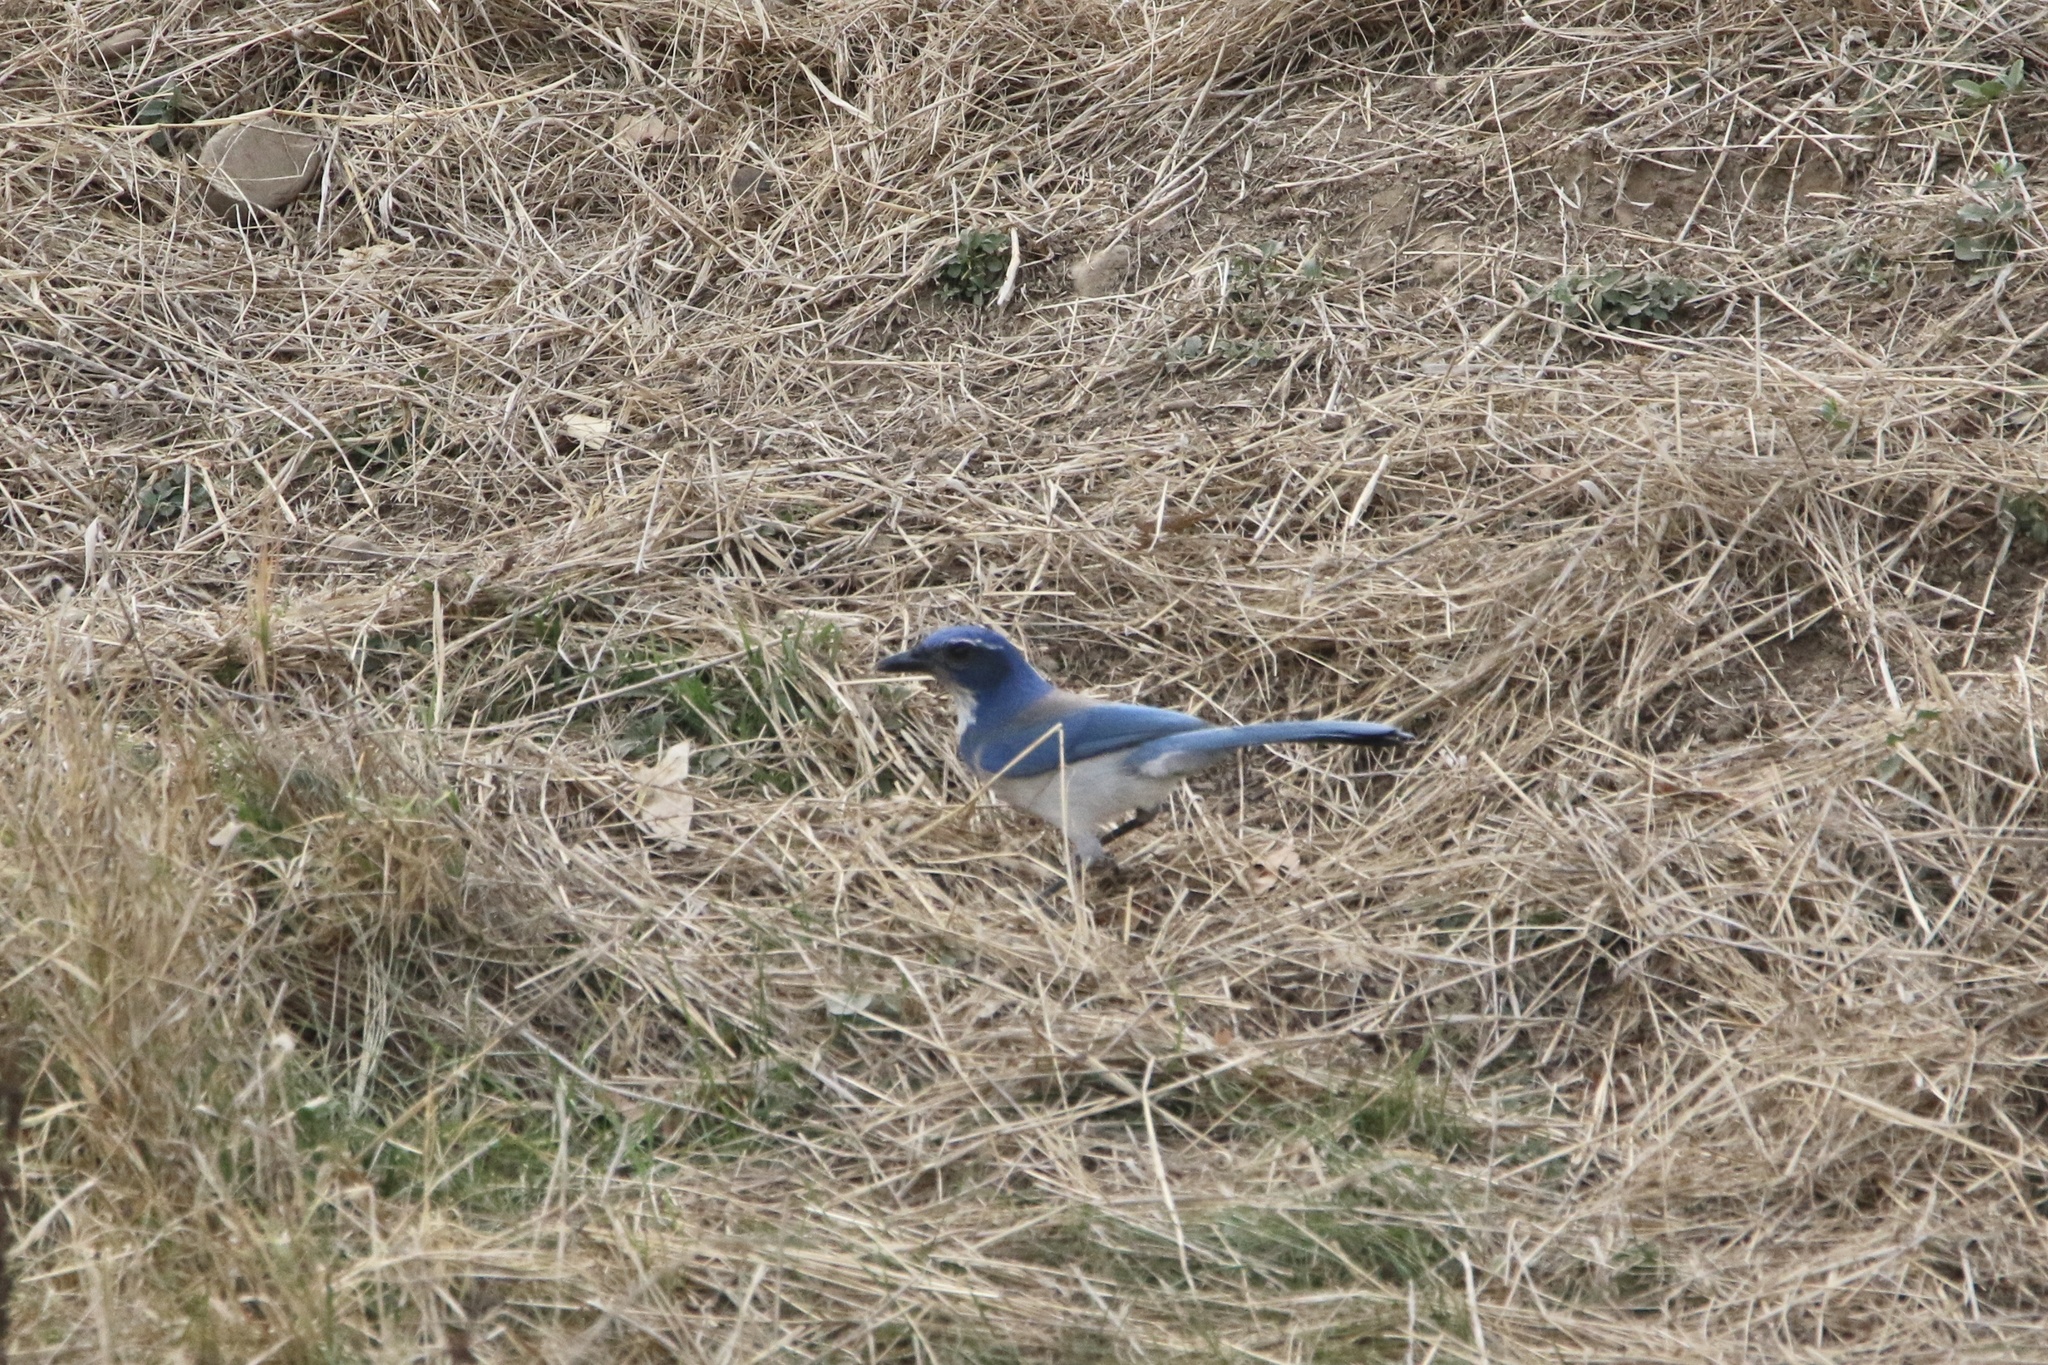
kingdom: Animalia
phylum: Chordata
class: Aves
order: Passeriformes
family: Corvidae
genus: Aphelocoma
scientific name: Aphelocoma californica
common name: California scrub-jay
